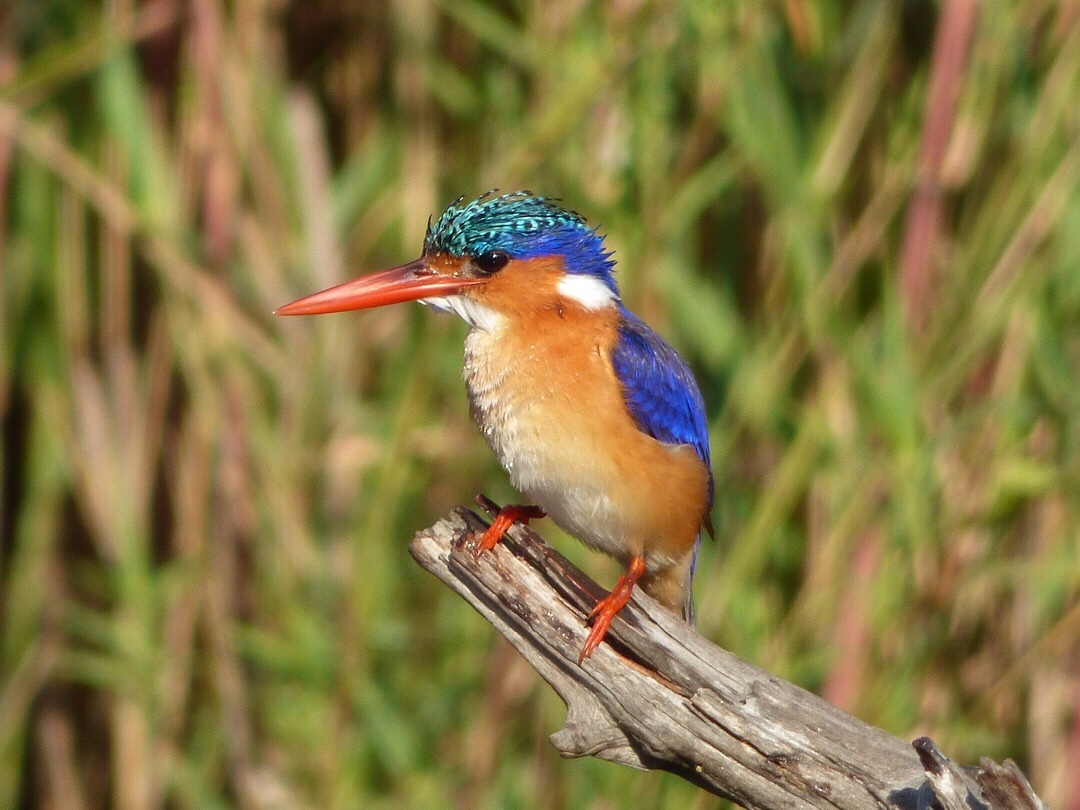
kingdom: Animalia
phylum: Chordata
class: Aves
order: Coraciiformes
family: Alcedinidae
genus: Corythornis
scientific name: Corythornis cristatus
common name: Malachite kingfisher
